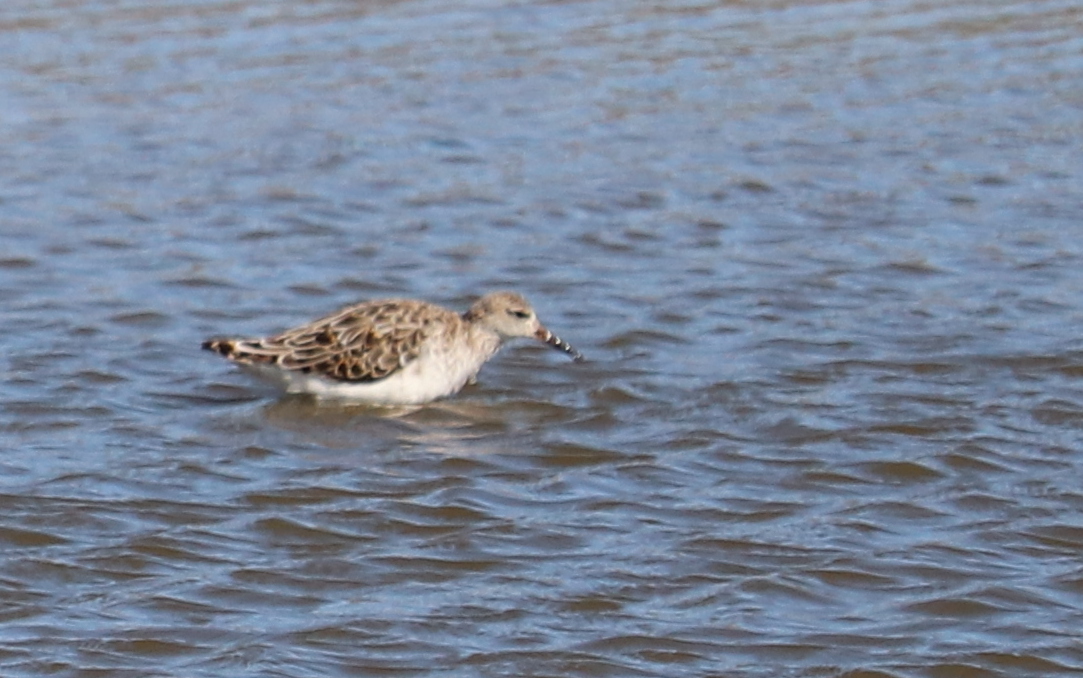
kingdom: Animalia
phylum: Chordata
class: Aves
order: Charadriiformes
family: Scolopacidae
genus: Calidris
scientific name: Calidris pugnax
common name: Ruff
